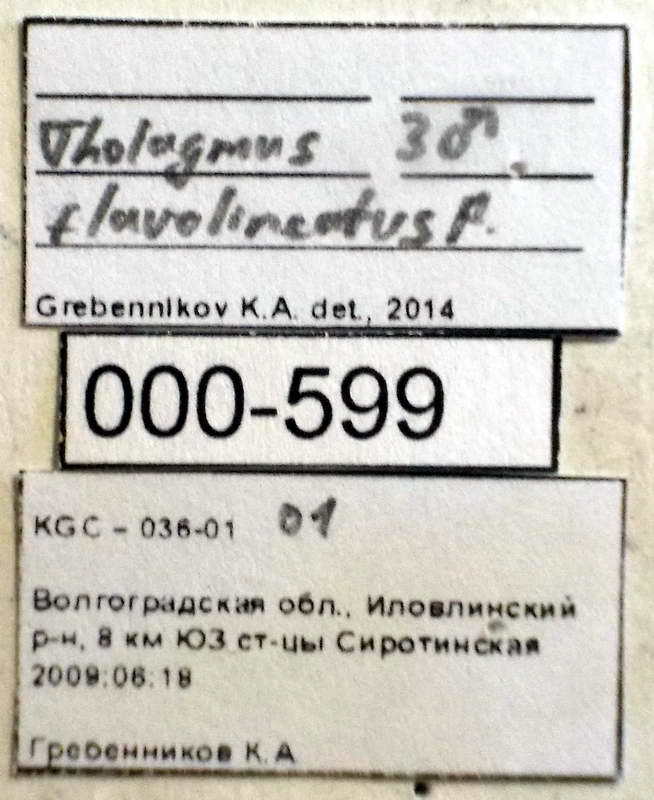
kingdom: Animalia
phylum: Arthropoda
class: Insecta
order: Hemiptera
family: Pentatomidae
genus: Tholagmus
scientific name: Tholagmus flavolineatus
